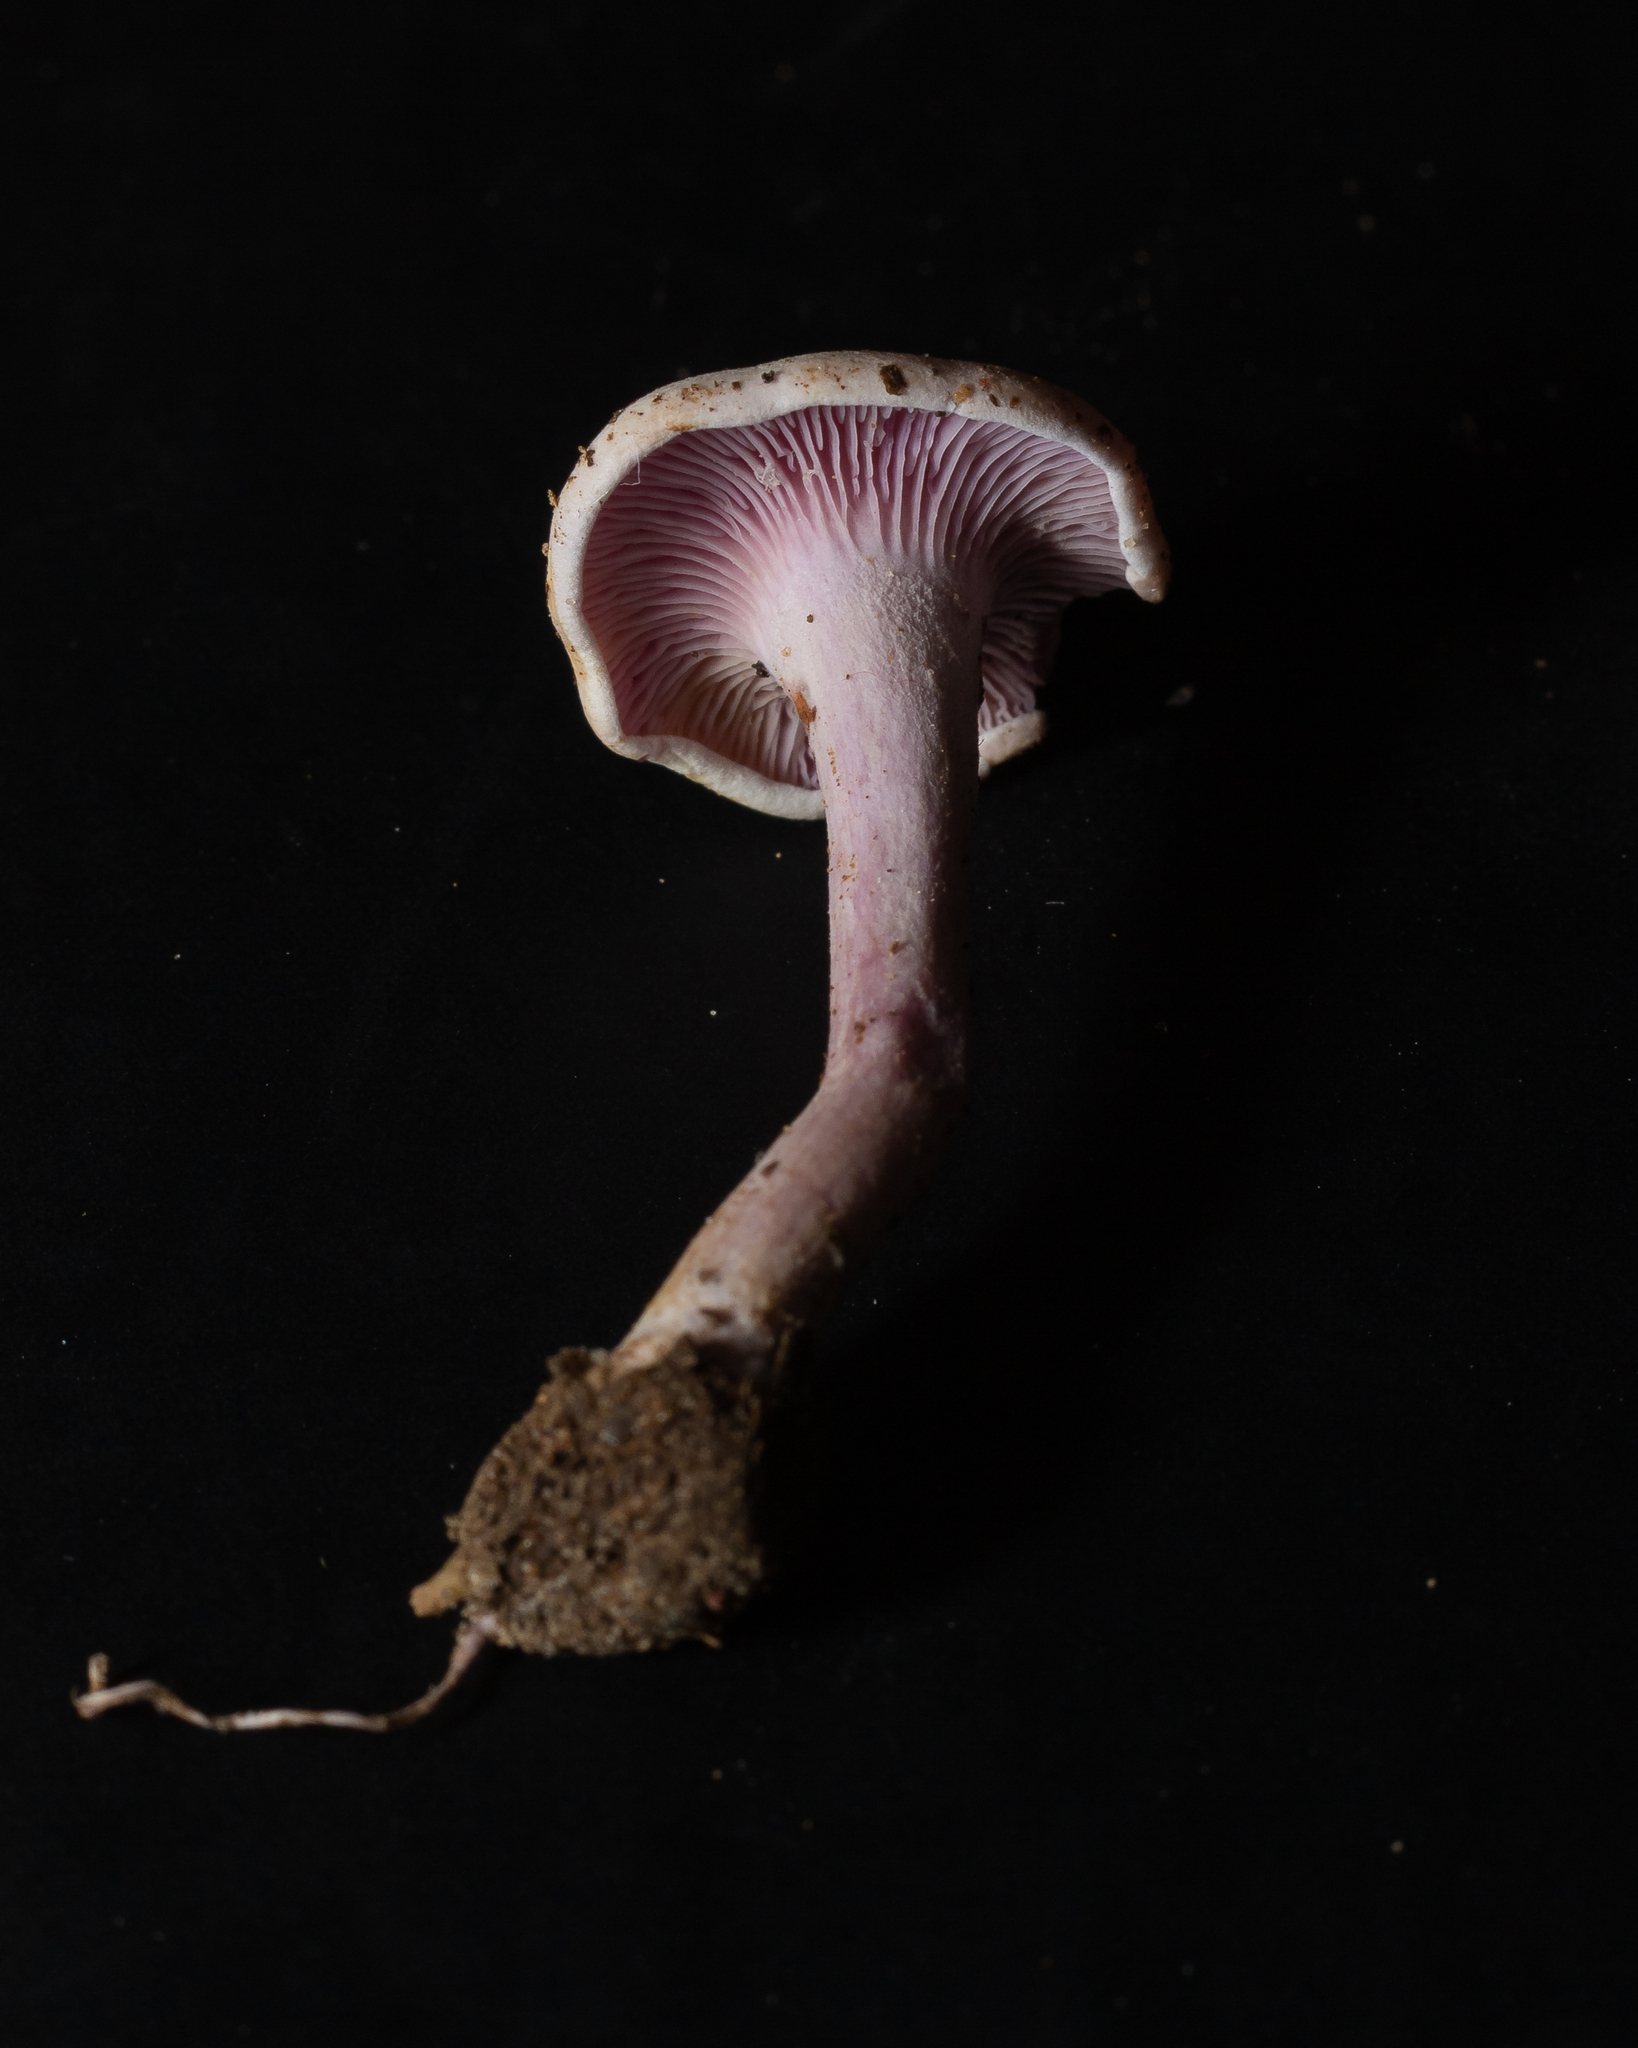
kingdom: Fungi
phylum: Basidiomycota
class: Agaricomycetes
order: Agaricales
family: Marasmiaceae
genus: Trogia
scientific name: Trogia cantharelloides
